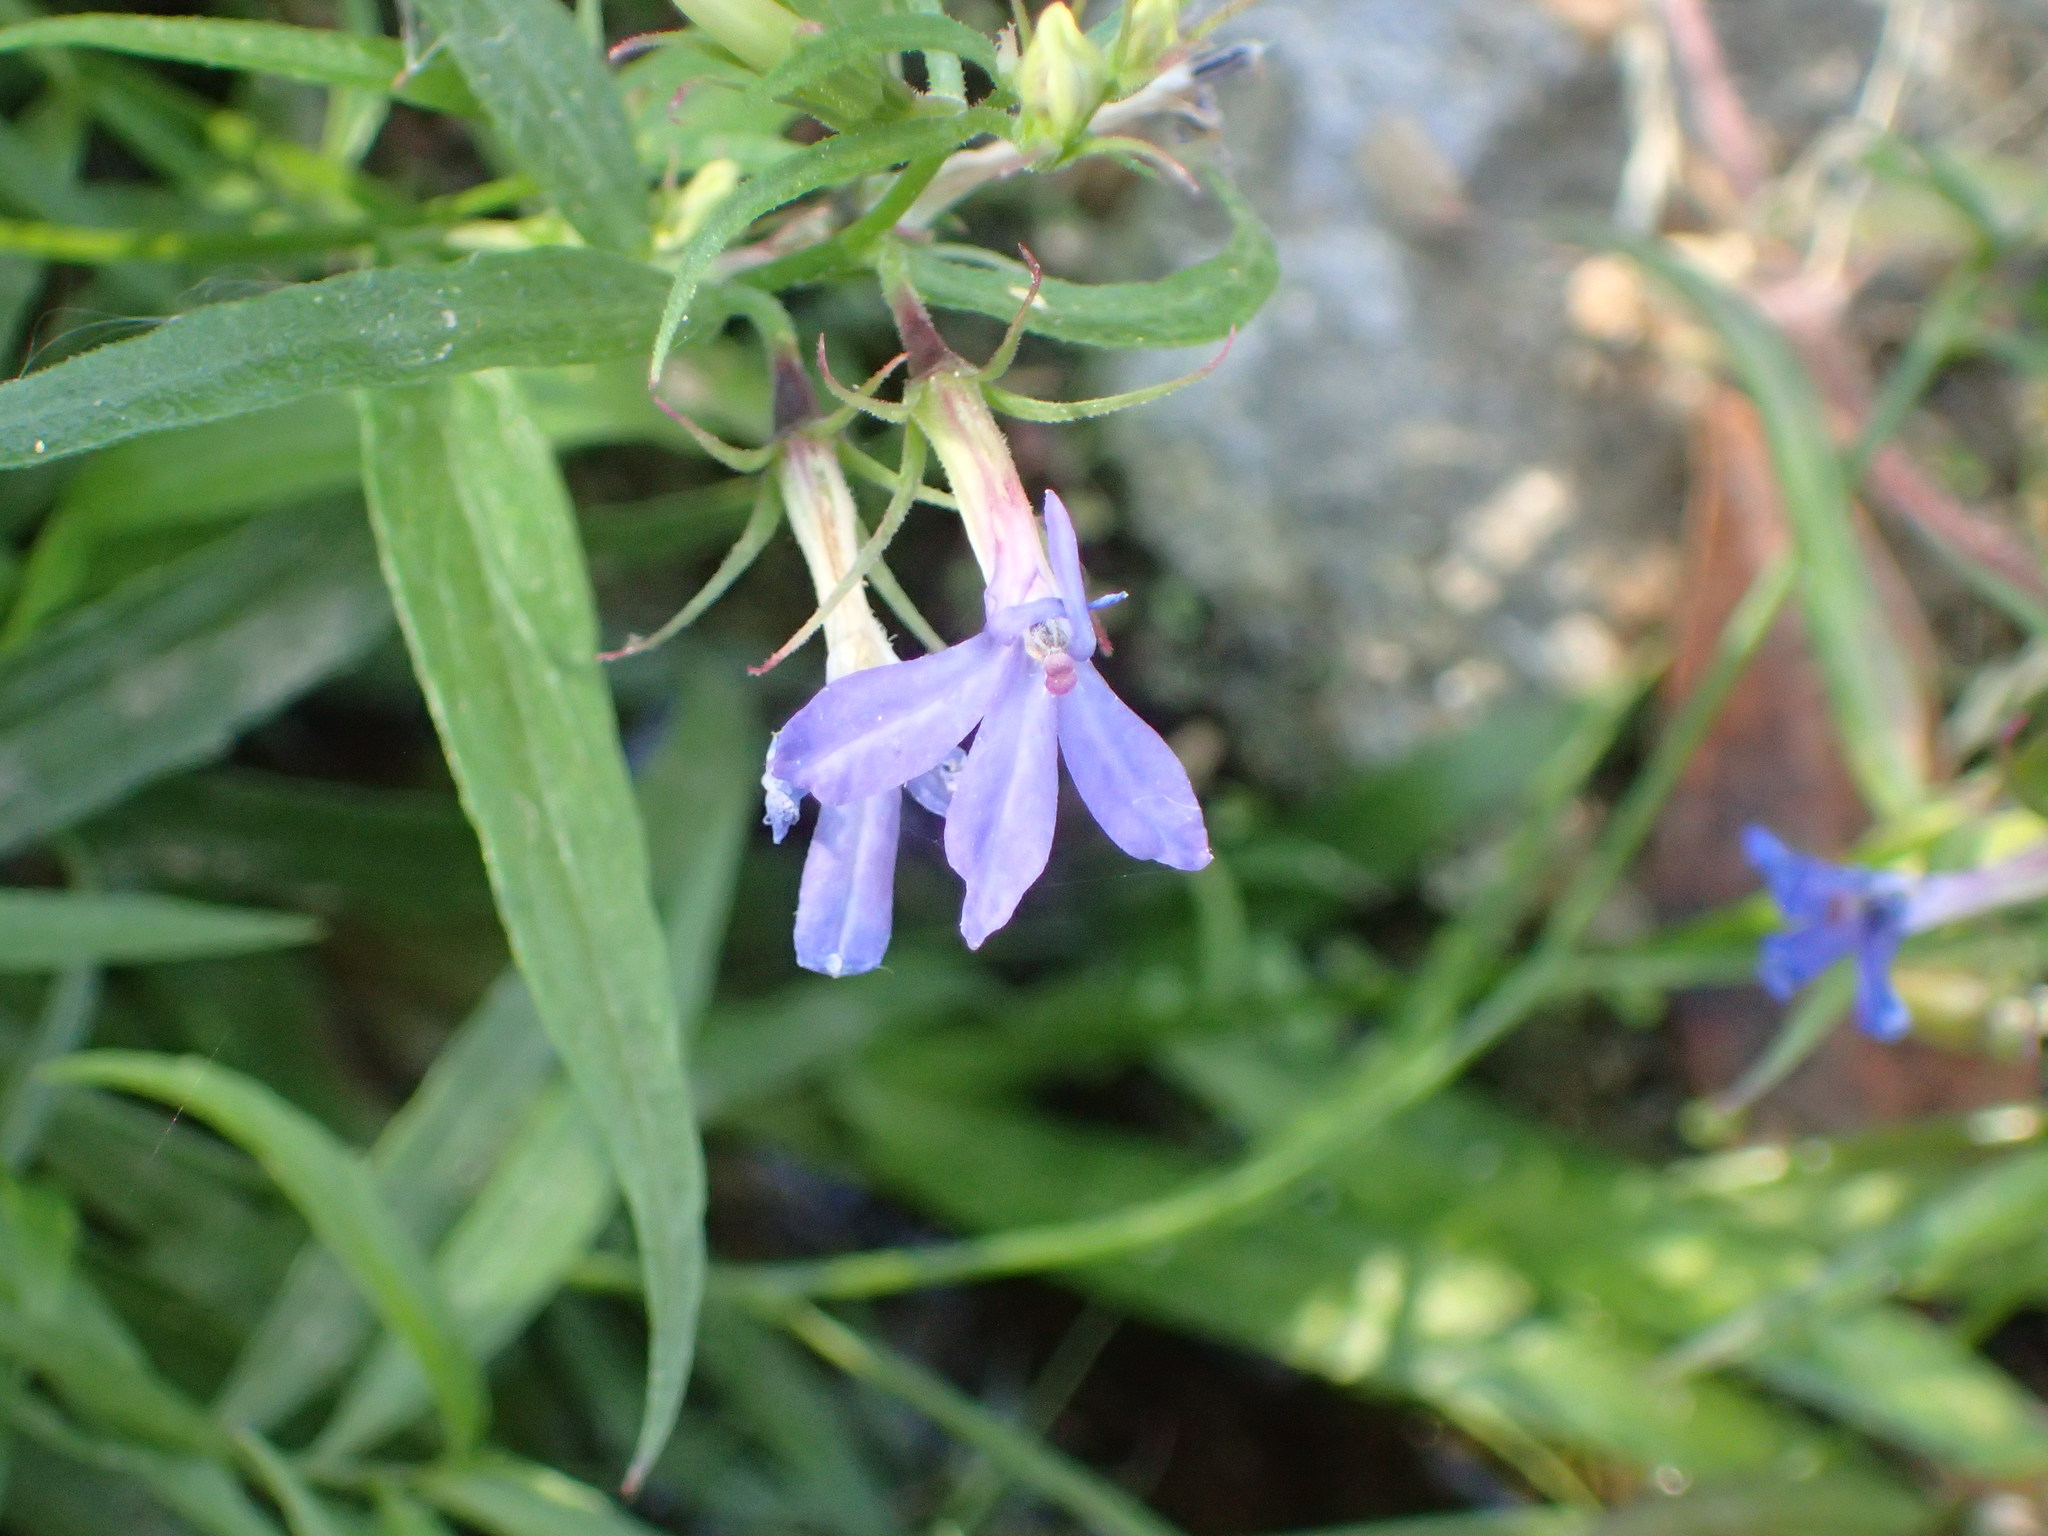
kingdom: Plantae
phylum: Tracheophyta
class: Magnoliopsida
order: Asterales
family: Campanulaceae
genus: Palmerella
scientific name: Palmerella debilis
